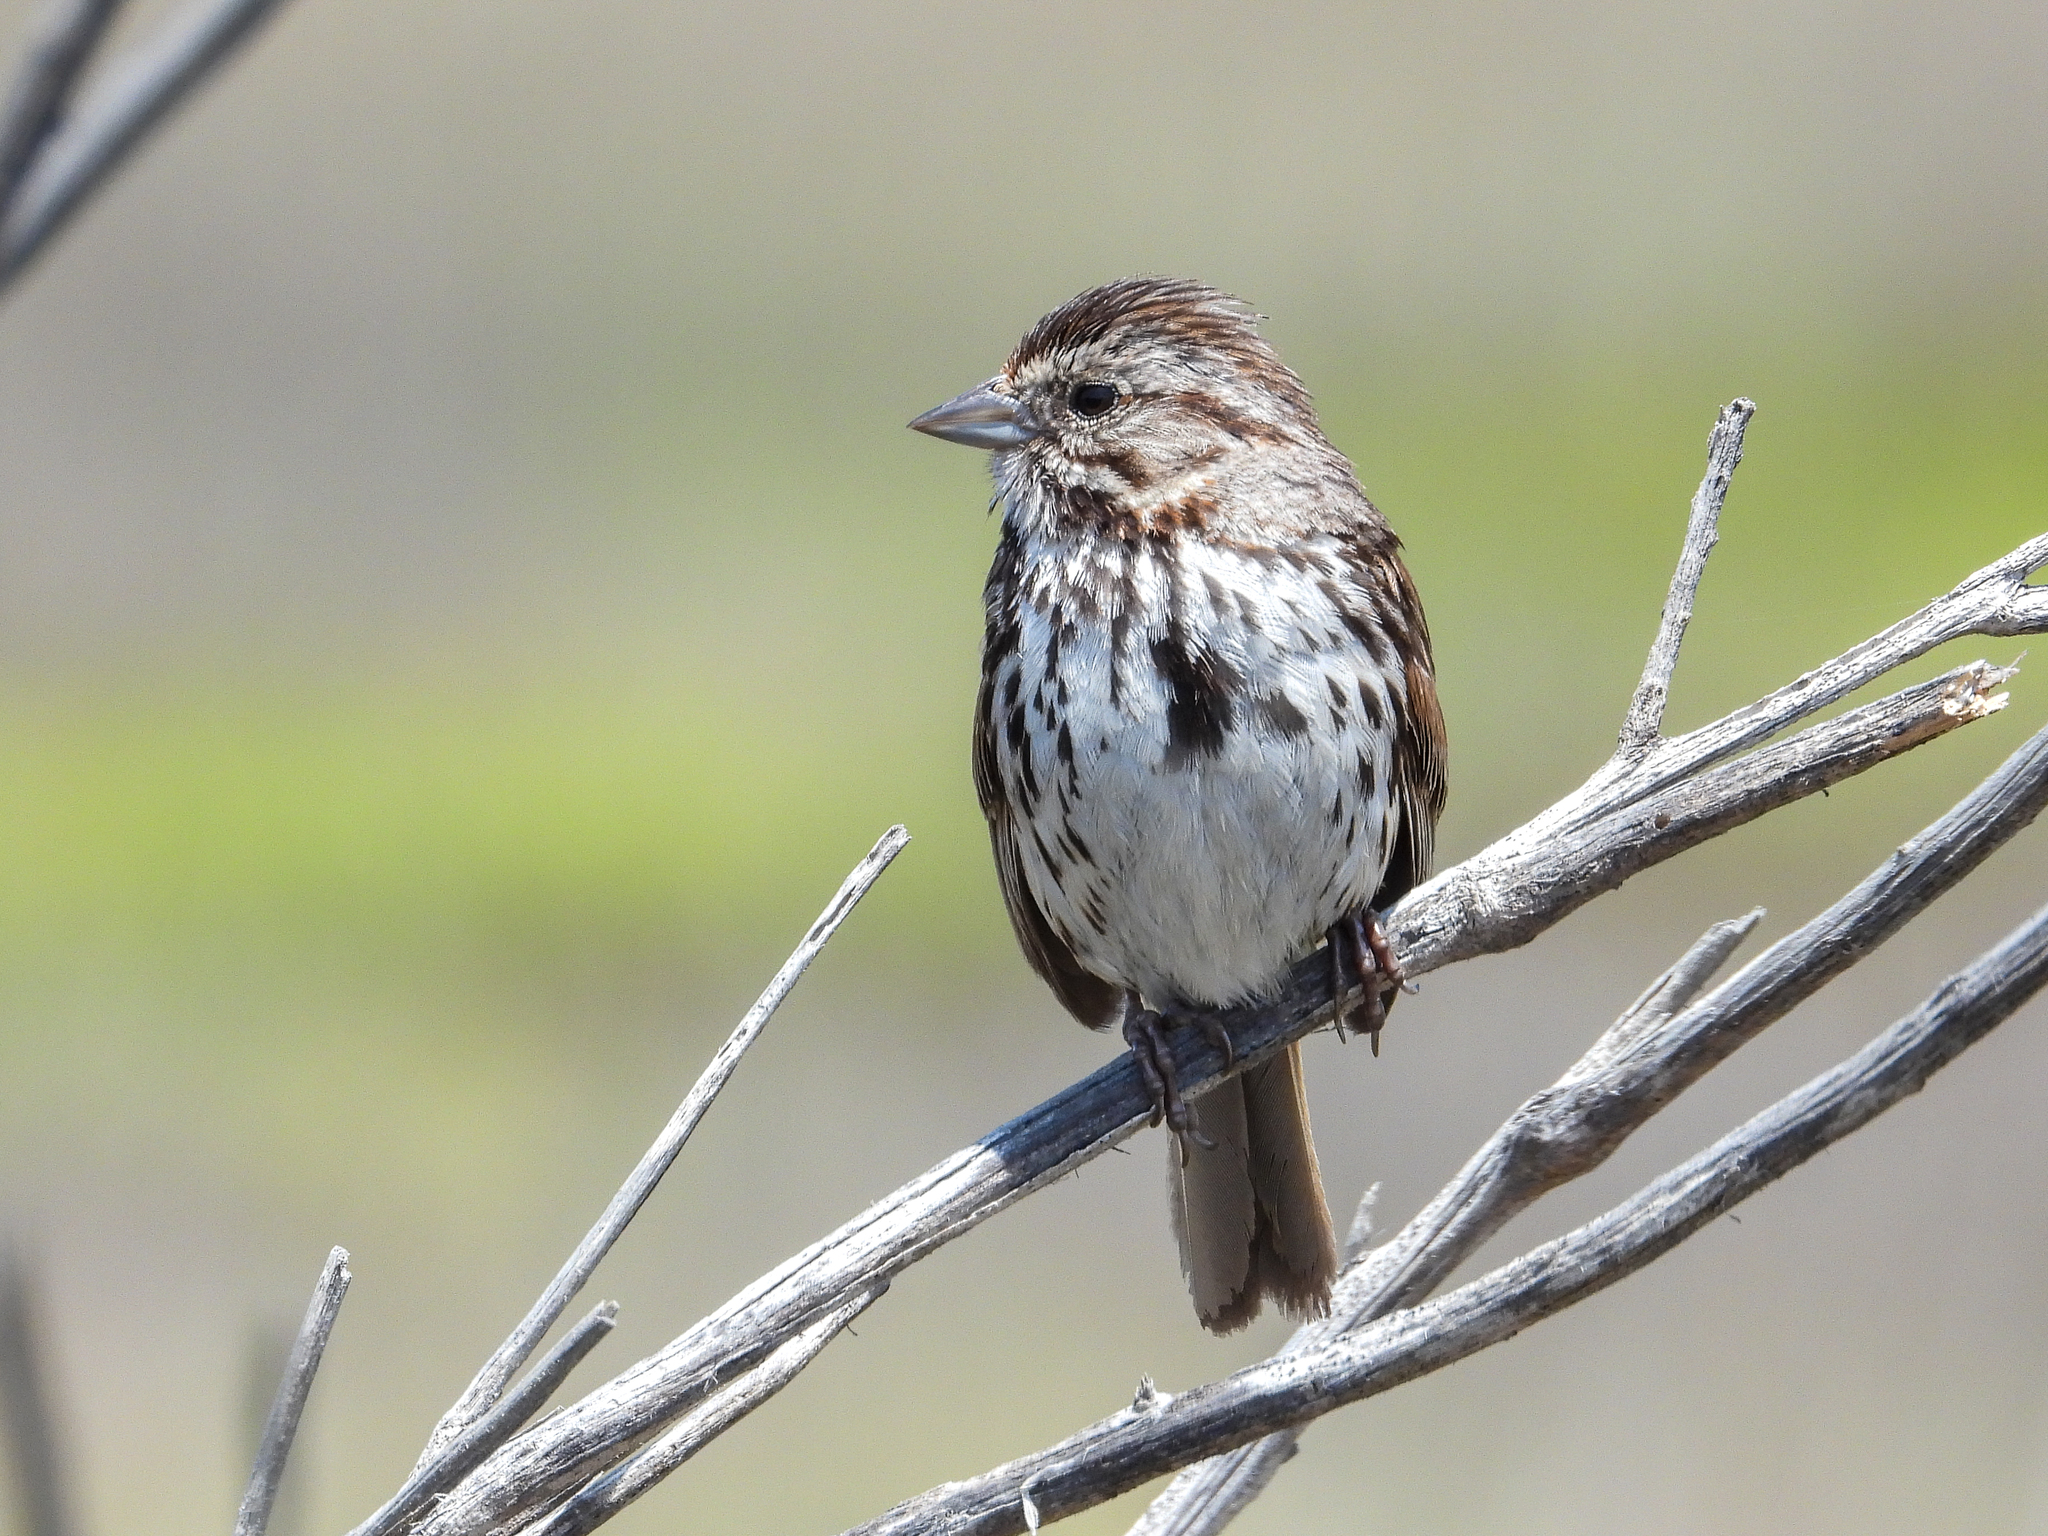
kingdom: Animalia
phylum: Chordata
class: Aves
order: Passeriformes
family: Passerellidae
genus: Melospiza
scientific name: Melospiza melodia
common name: Song sparrow
